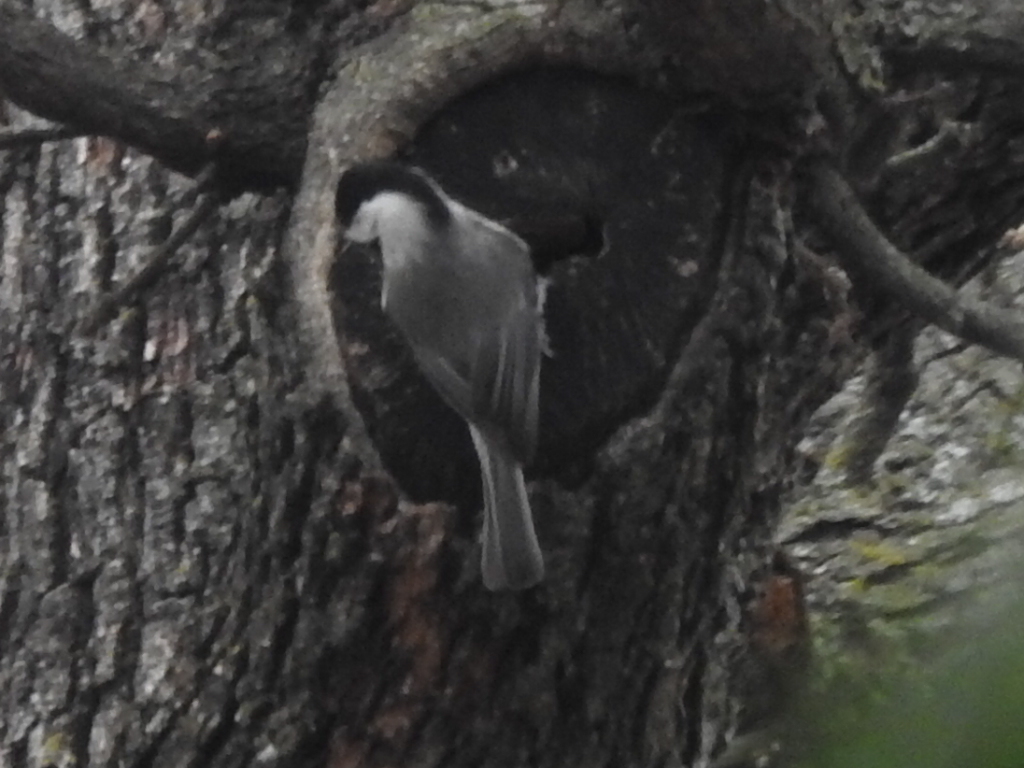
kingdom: Animalia
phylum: Chordata
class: Aves
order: Passeriformes
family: Paridae
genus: Poecile
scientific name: Poecile carolinensis
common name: Carolina chickadee
